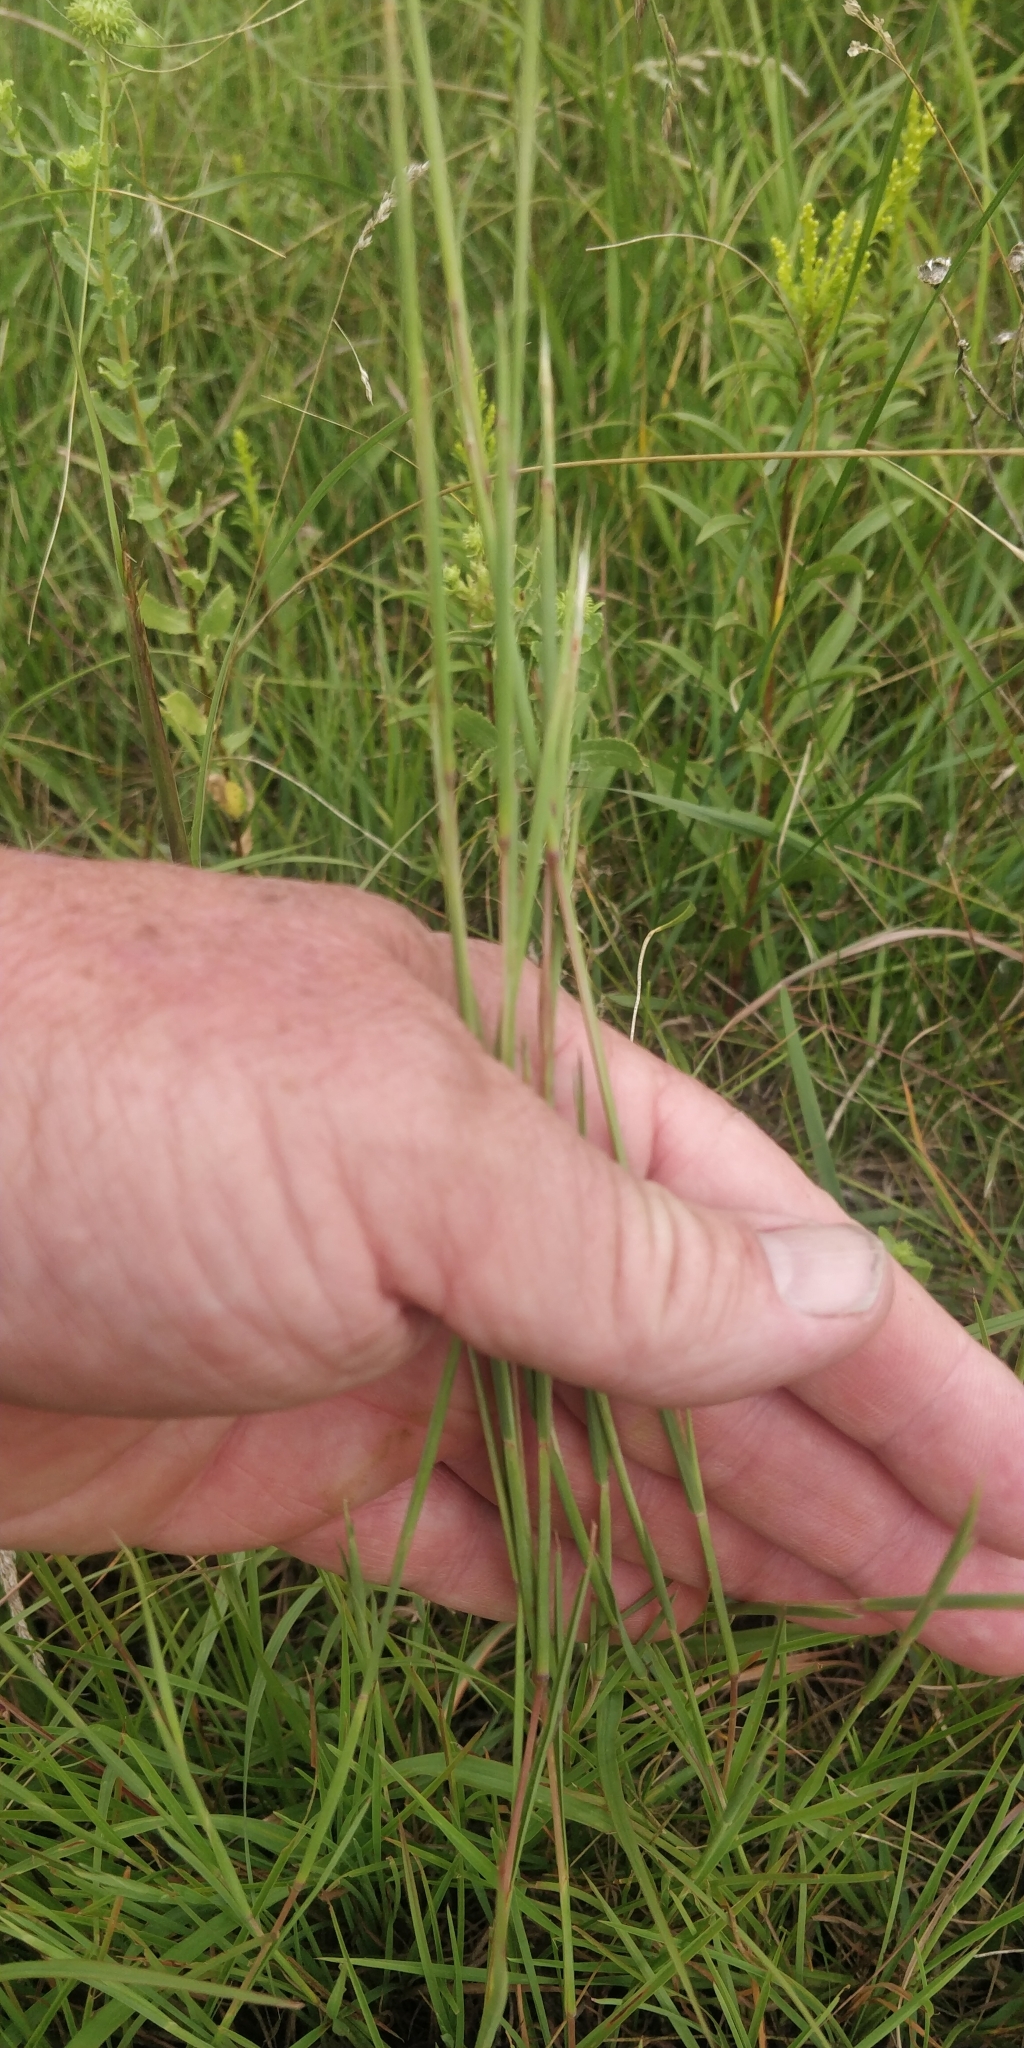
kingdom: Plantae
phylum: Tracheophyta
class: Liliopsida
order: Poales
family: Poaceae
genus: Schizachyrium
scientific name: Schizachyrium scoparium
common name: Little bluestem
